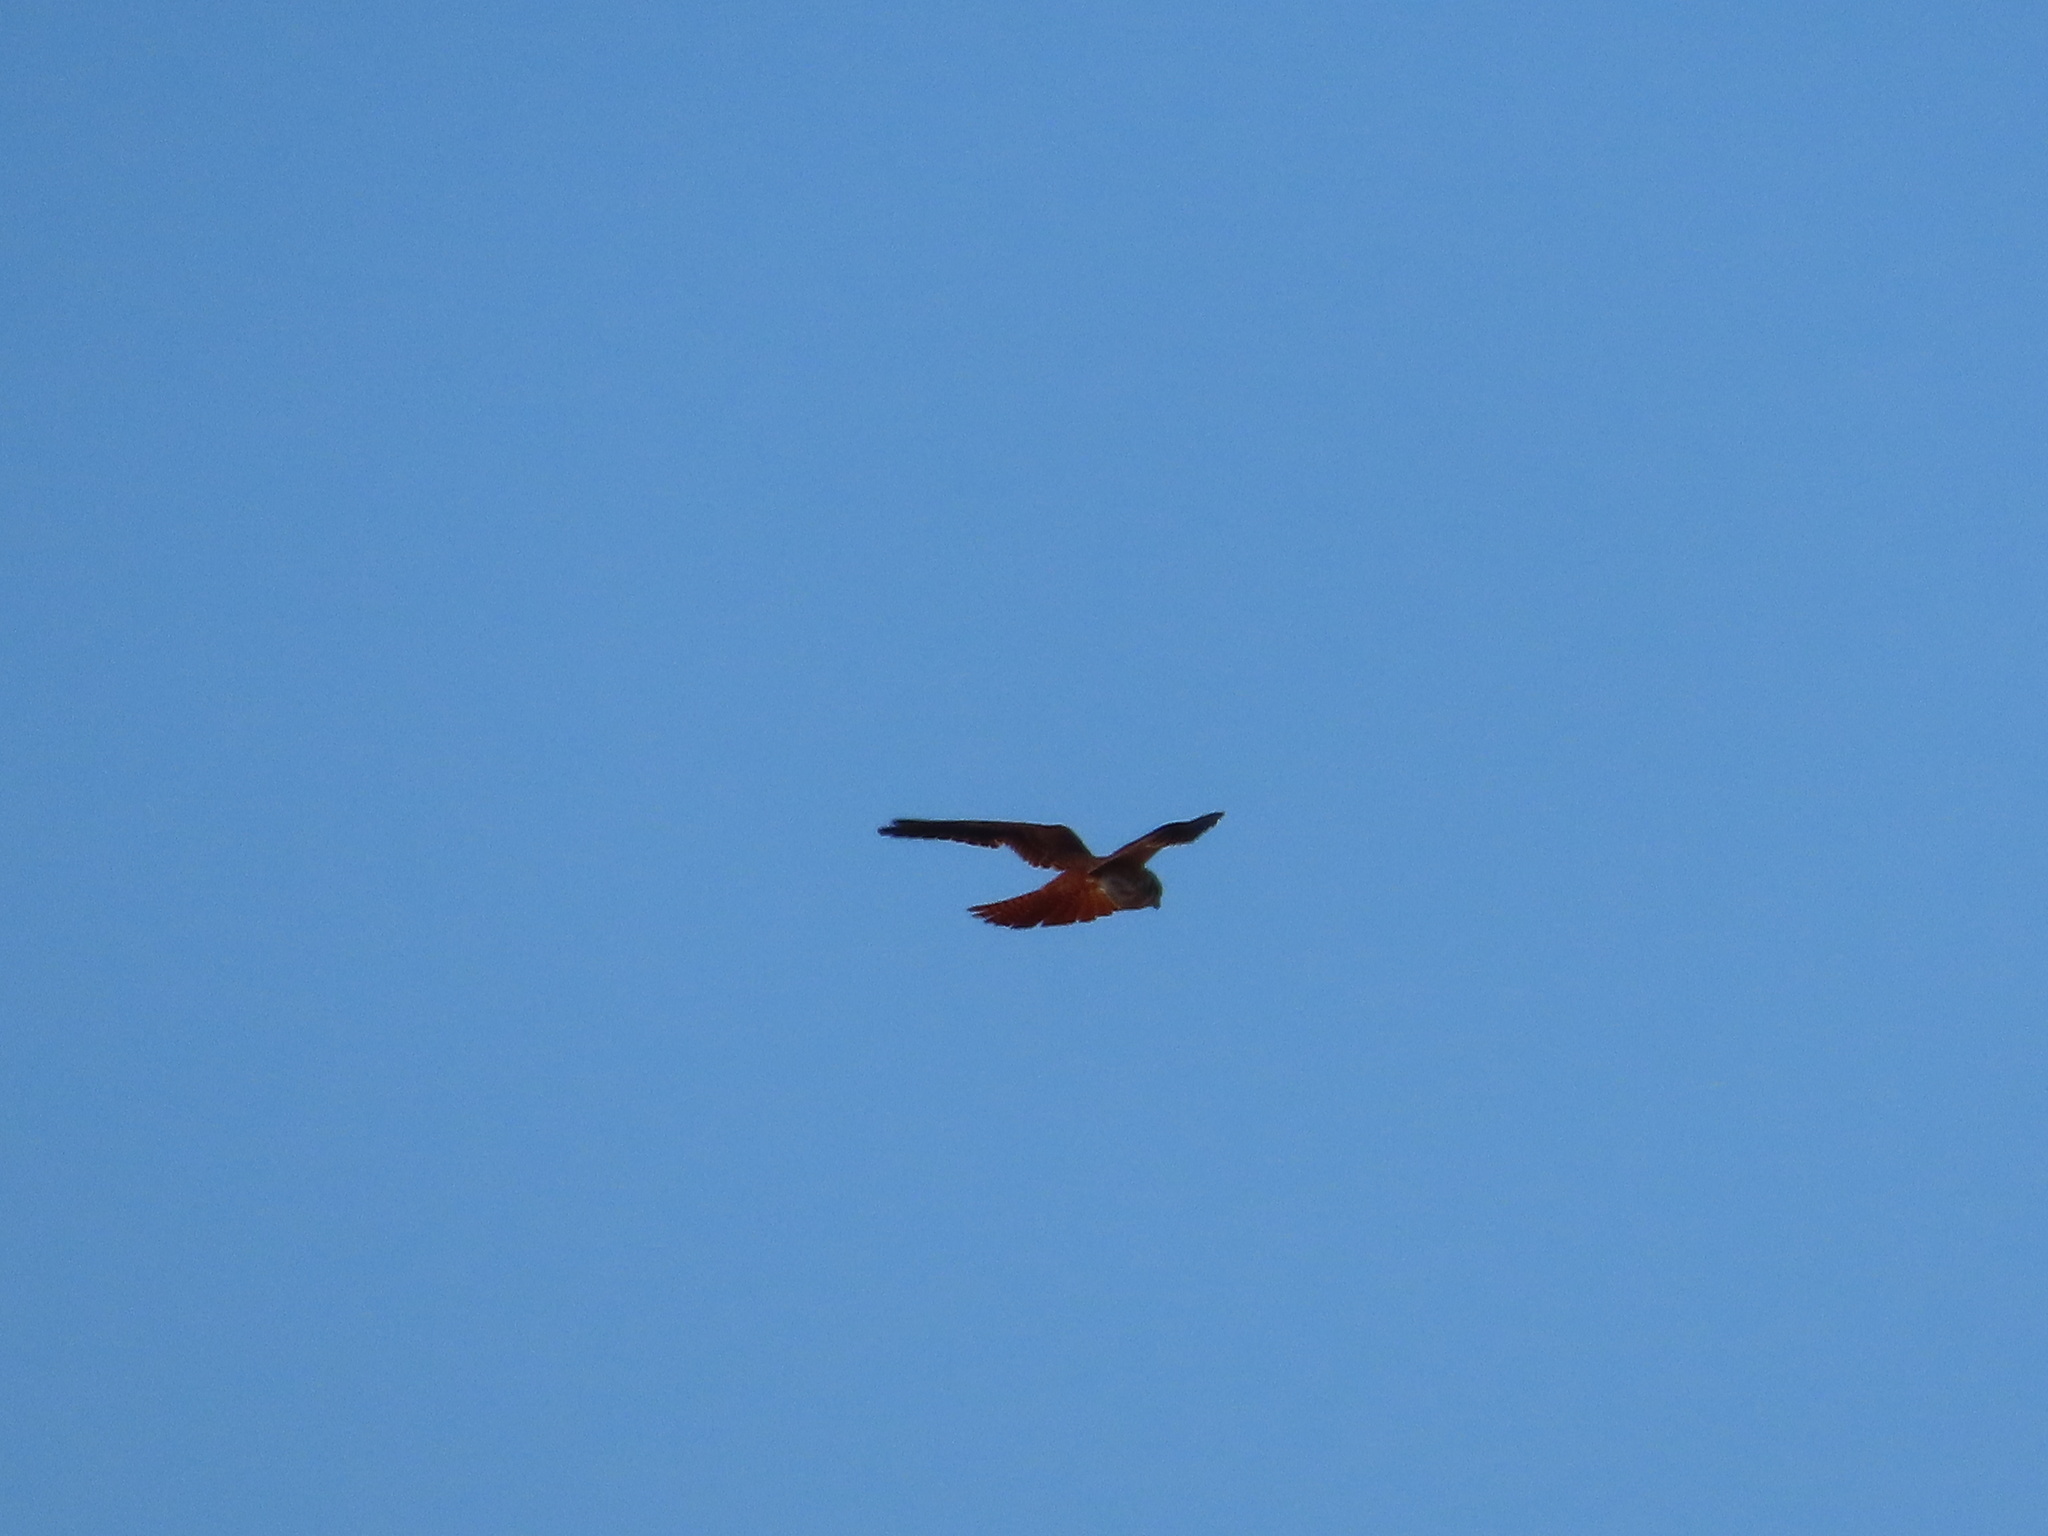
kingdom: Animalia
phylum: Chordata
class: Aves
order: Falconiformes
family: Falconidae
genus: Falco
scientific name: Falco sparverius
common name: American kestrel
